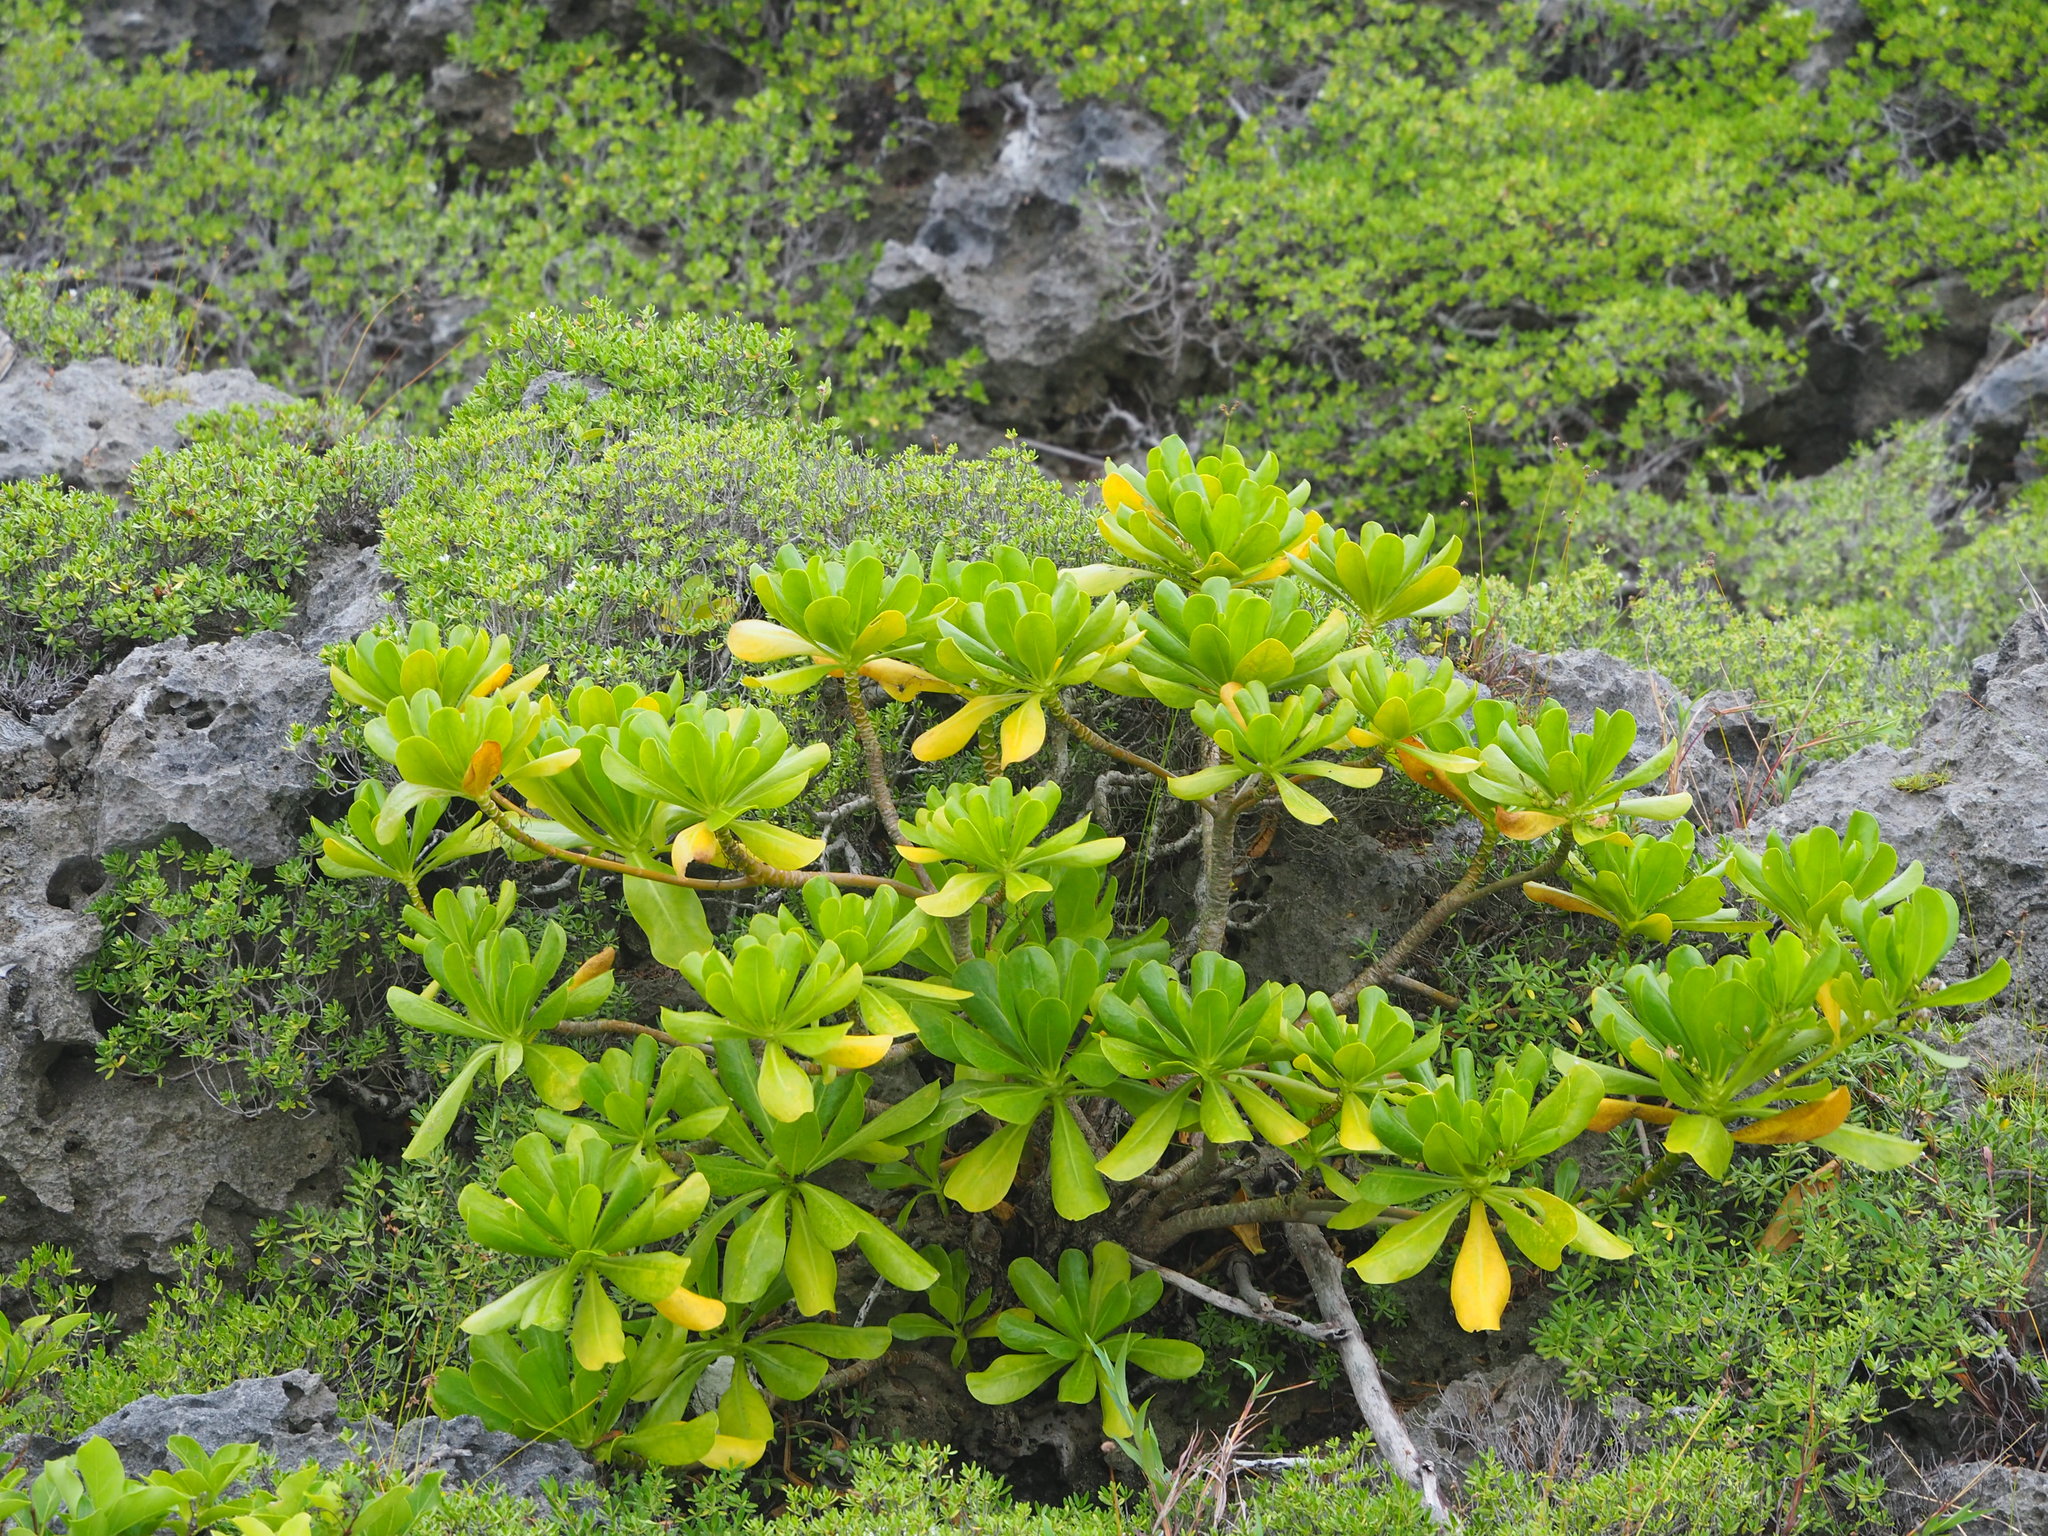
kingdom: Plantae
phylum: Tracheophyta
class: Magnoliopsida
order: Asterales
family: Goodeniaceae
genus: Scaevola
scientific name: Scaevola taccada
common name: Sea lettucetree
